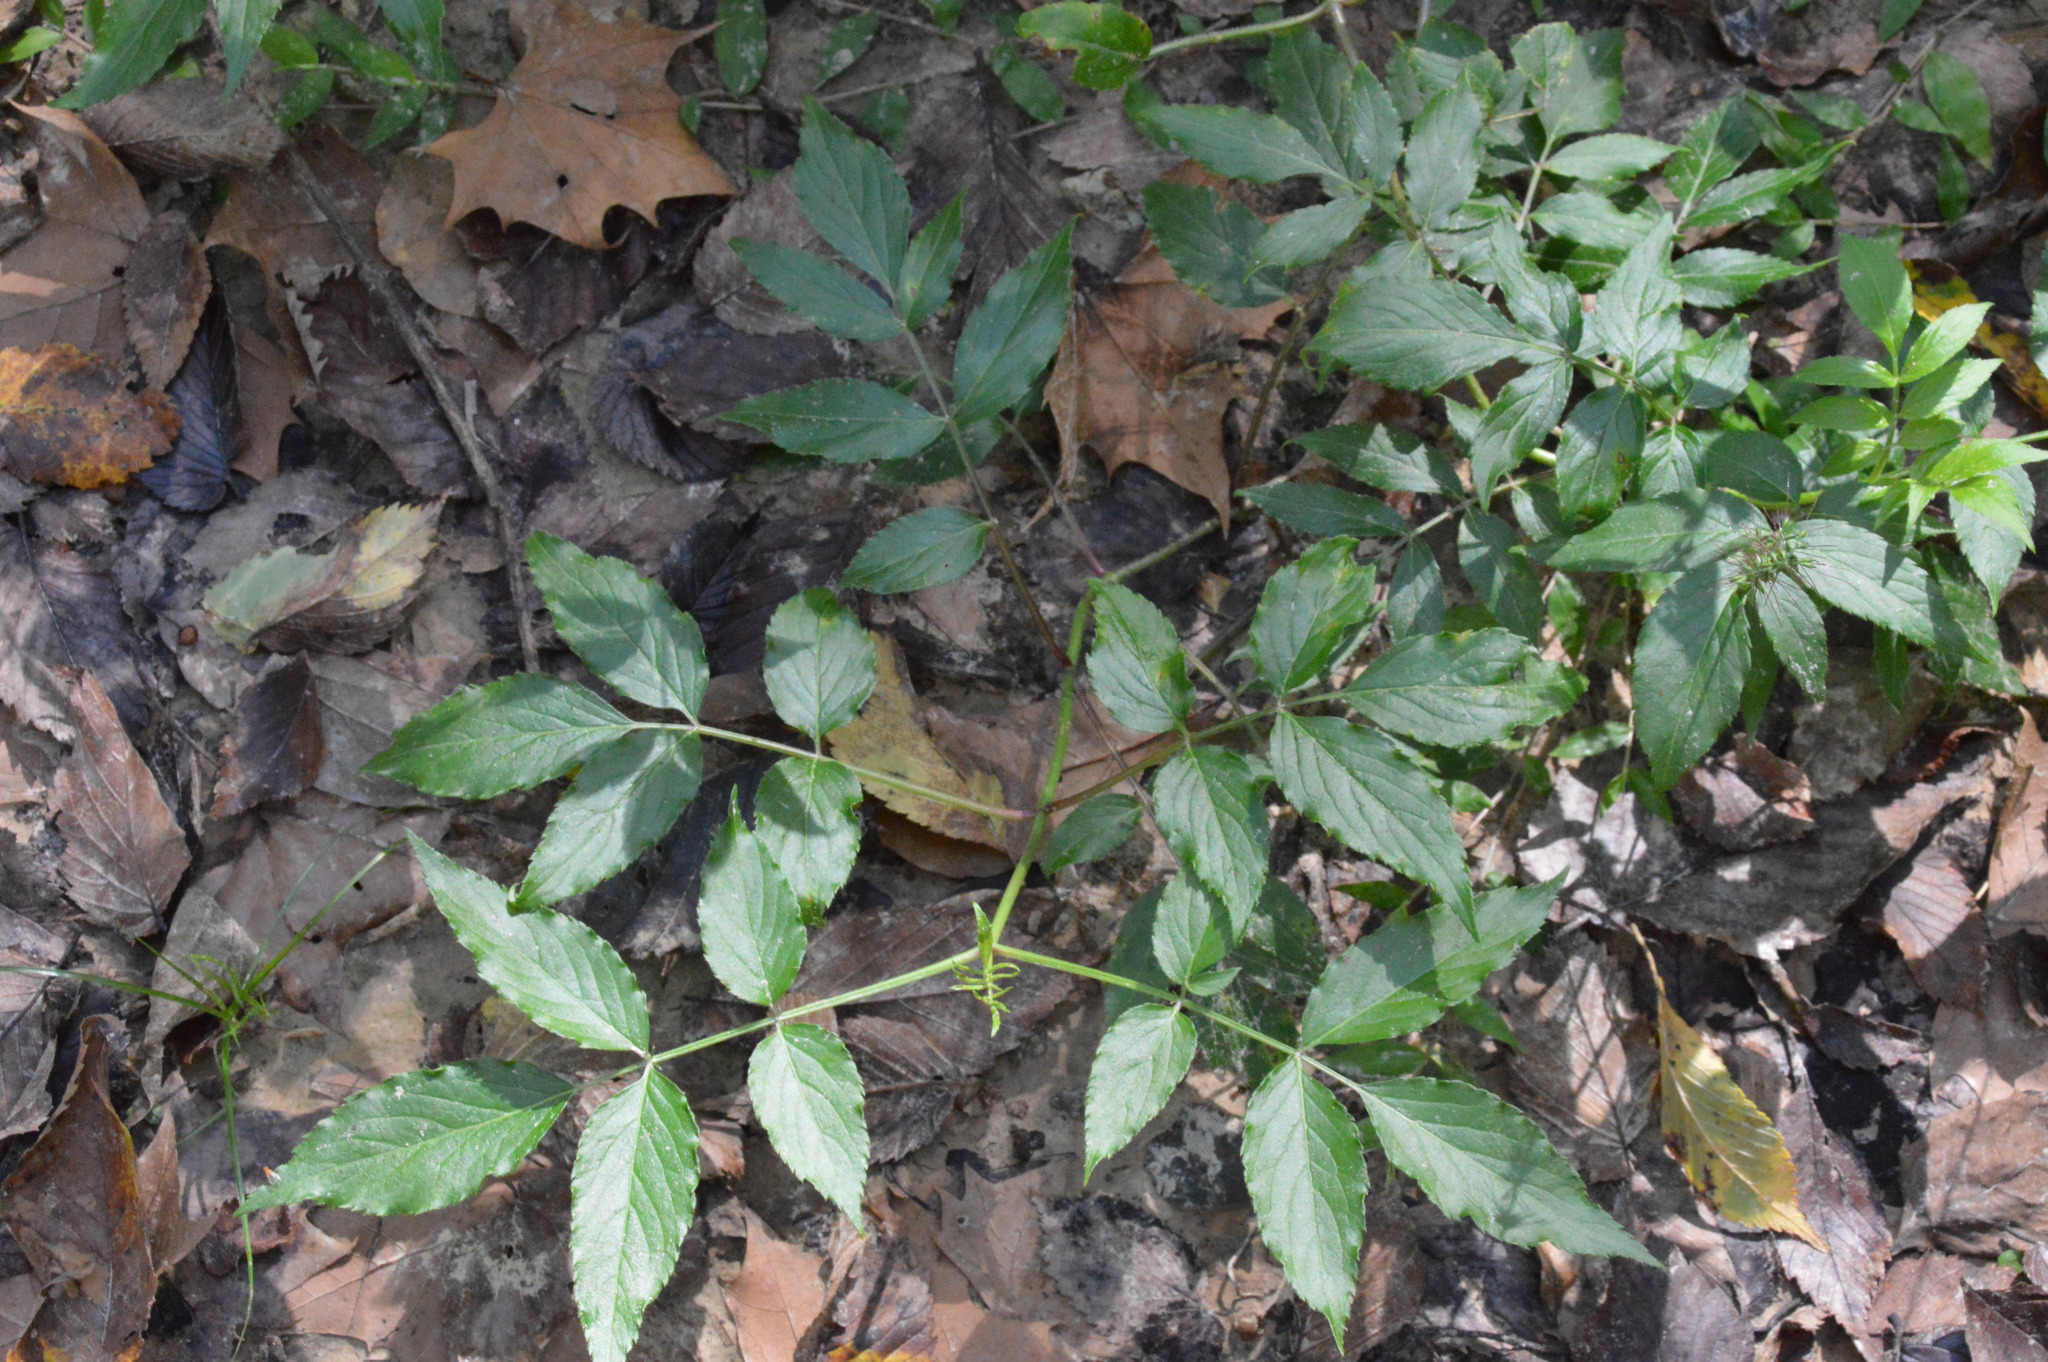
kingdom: Plantae
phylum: Tracheophyta
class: Magnoliopsida
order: Dipsacales
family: Viburnaceae
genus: Sambucus
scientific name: Sambucus canadensis
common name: American elder
